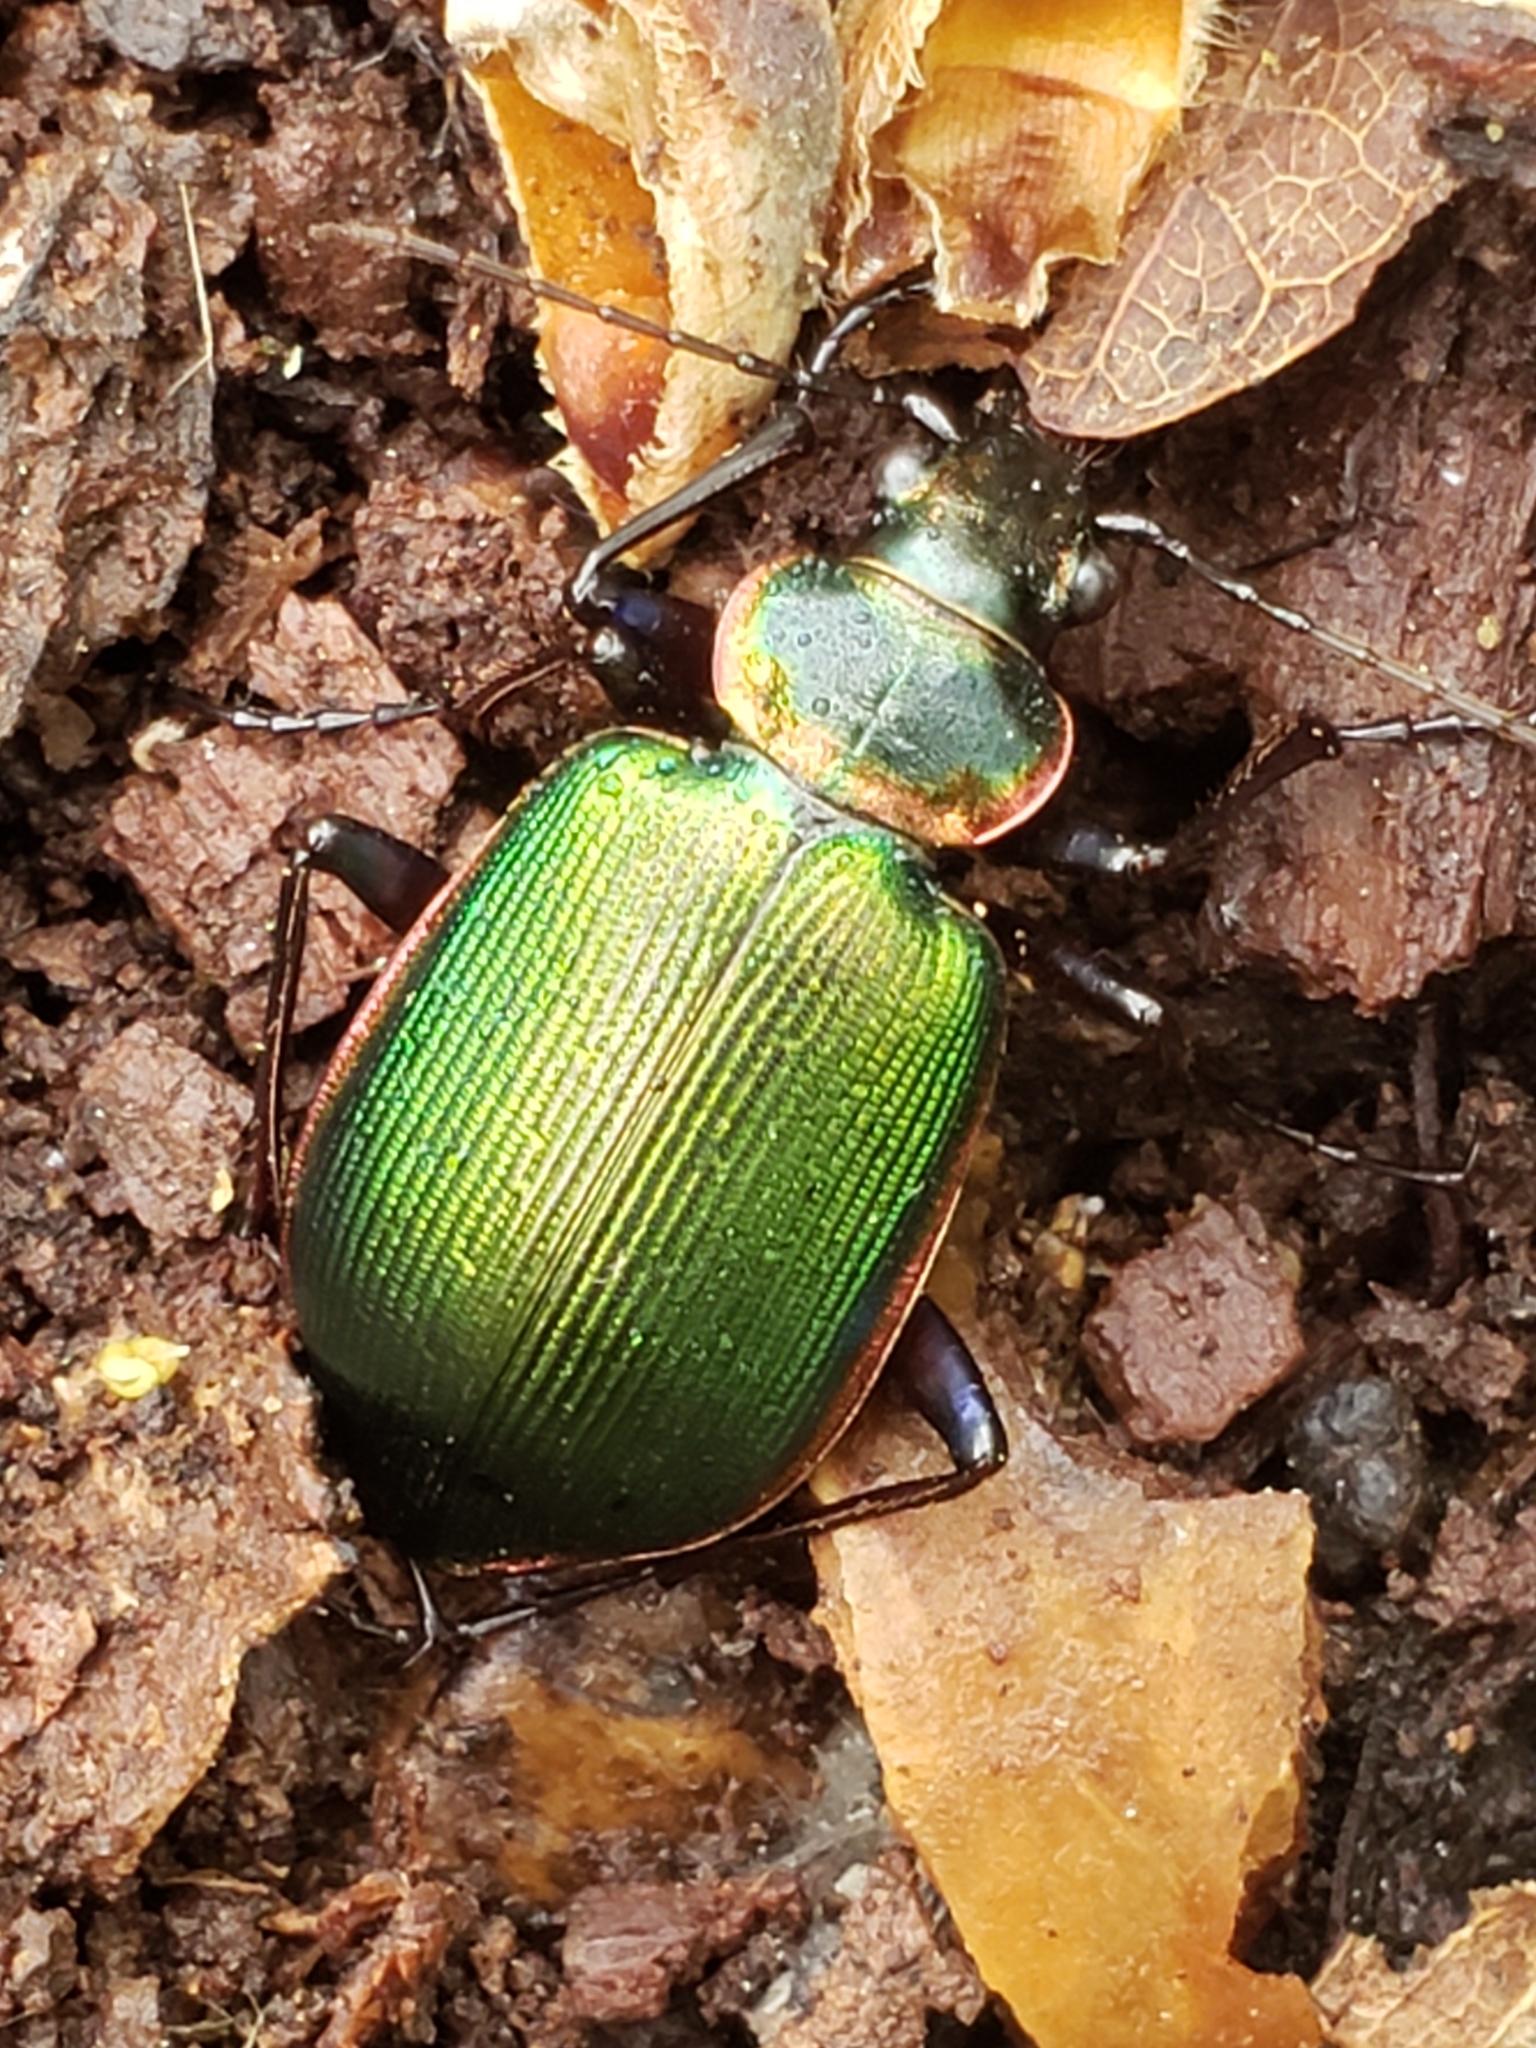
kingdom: Animalia
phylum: Arthropoda
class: Insecta
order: Coleoptera
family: Carabidae
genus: Calosoma
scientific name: Calosoma scrutator
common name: Fiery searcher beetle
